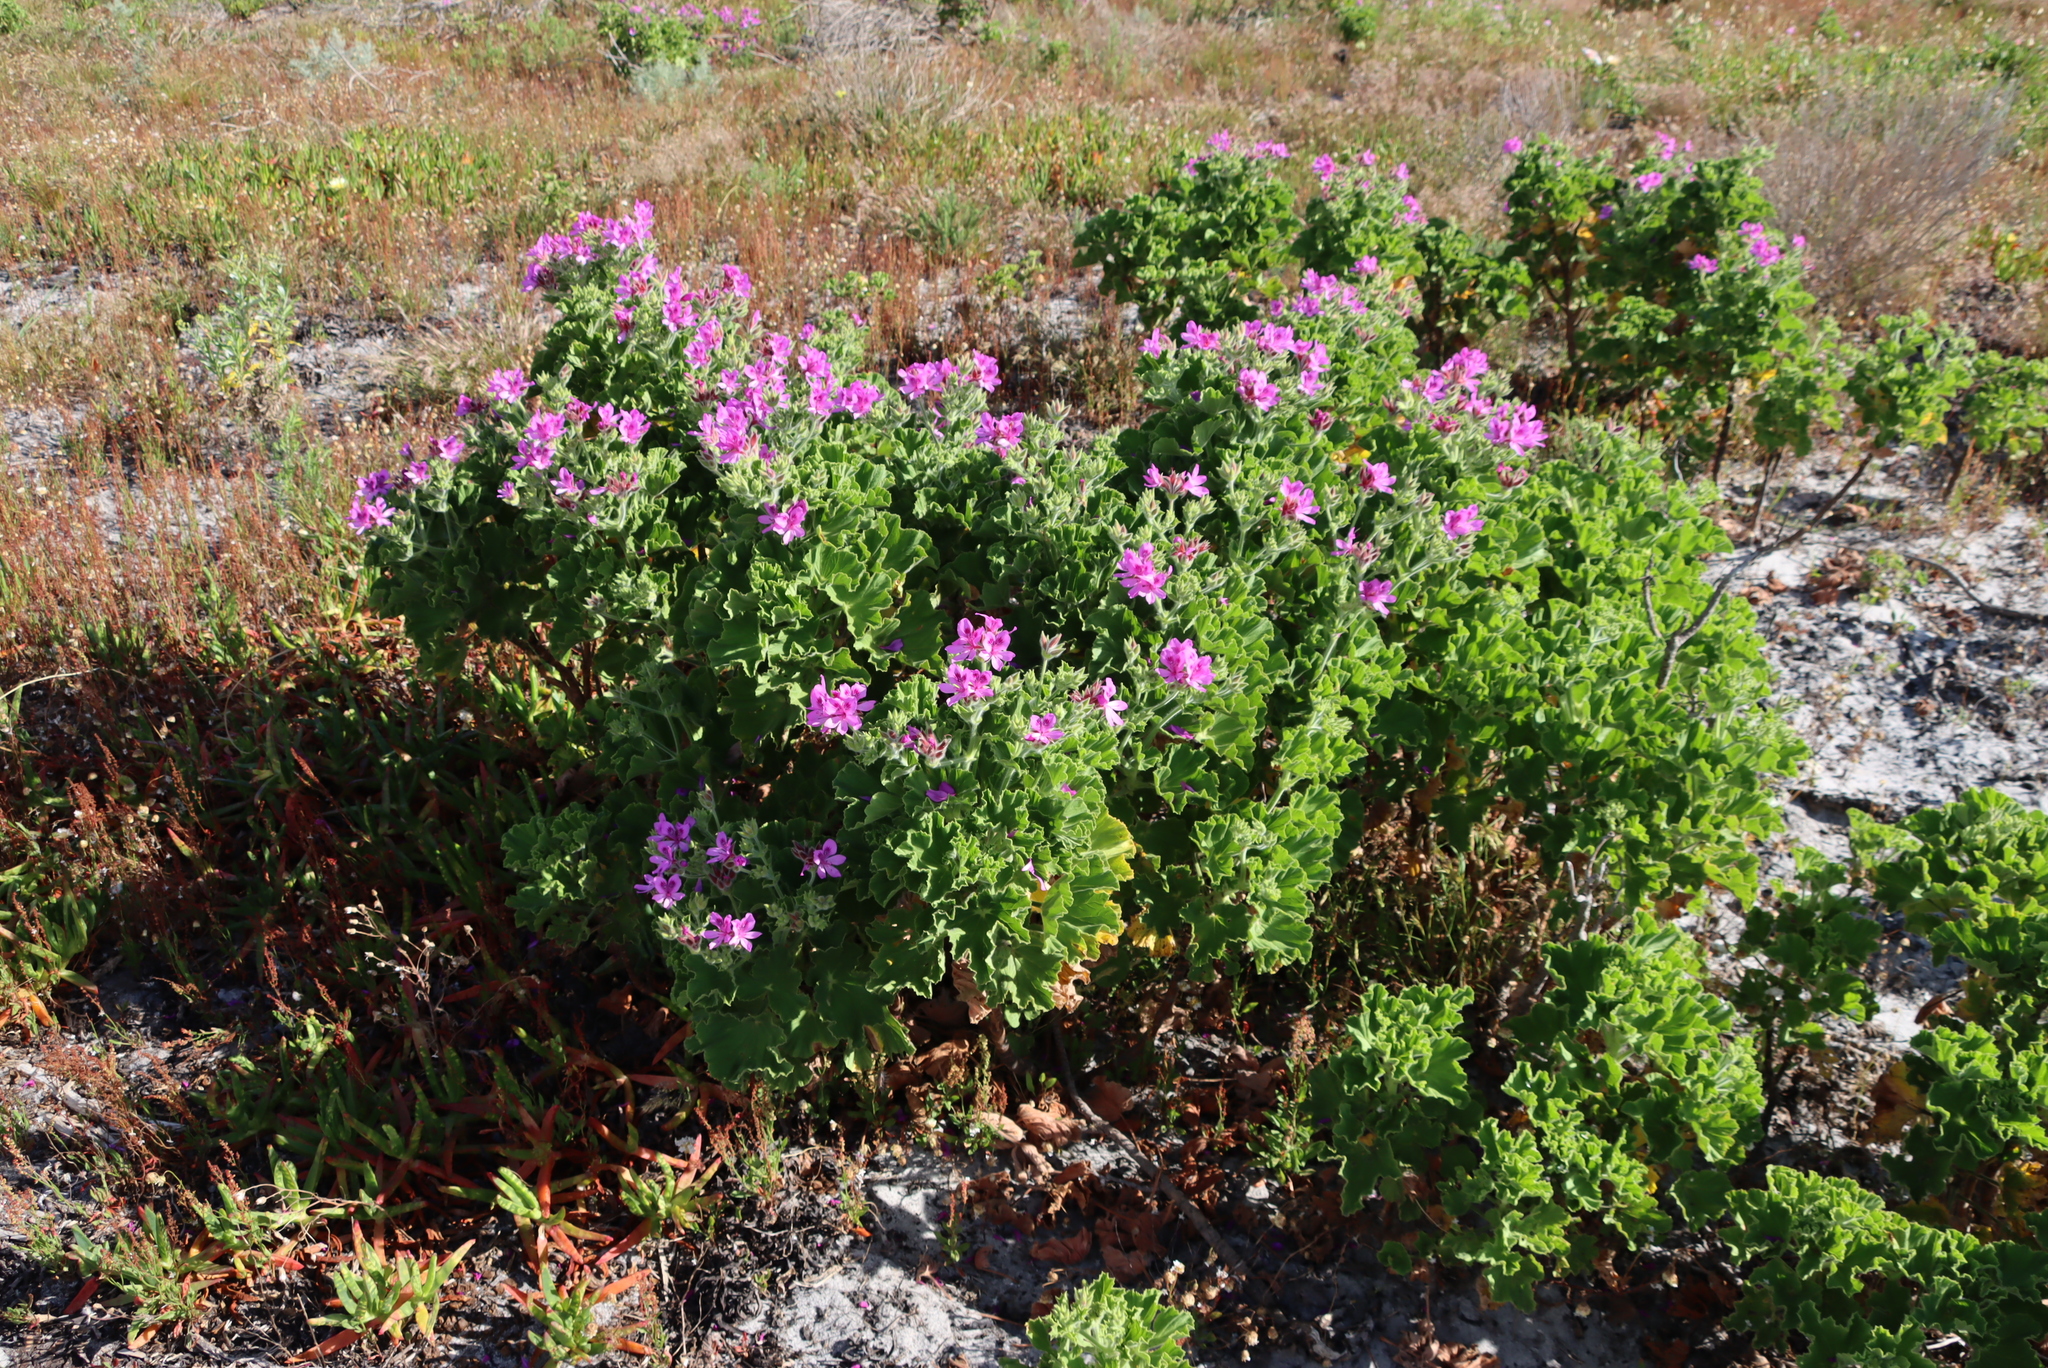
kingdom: Plantae
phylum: Tracheophyta
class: Magnoliopsida
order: Geraniales
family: Geraniaceae
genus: Pelargonium
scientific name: Pelargonium cucullatum
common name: Tree pelargonium
